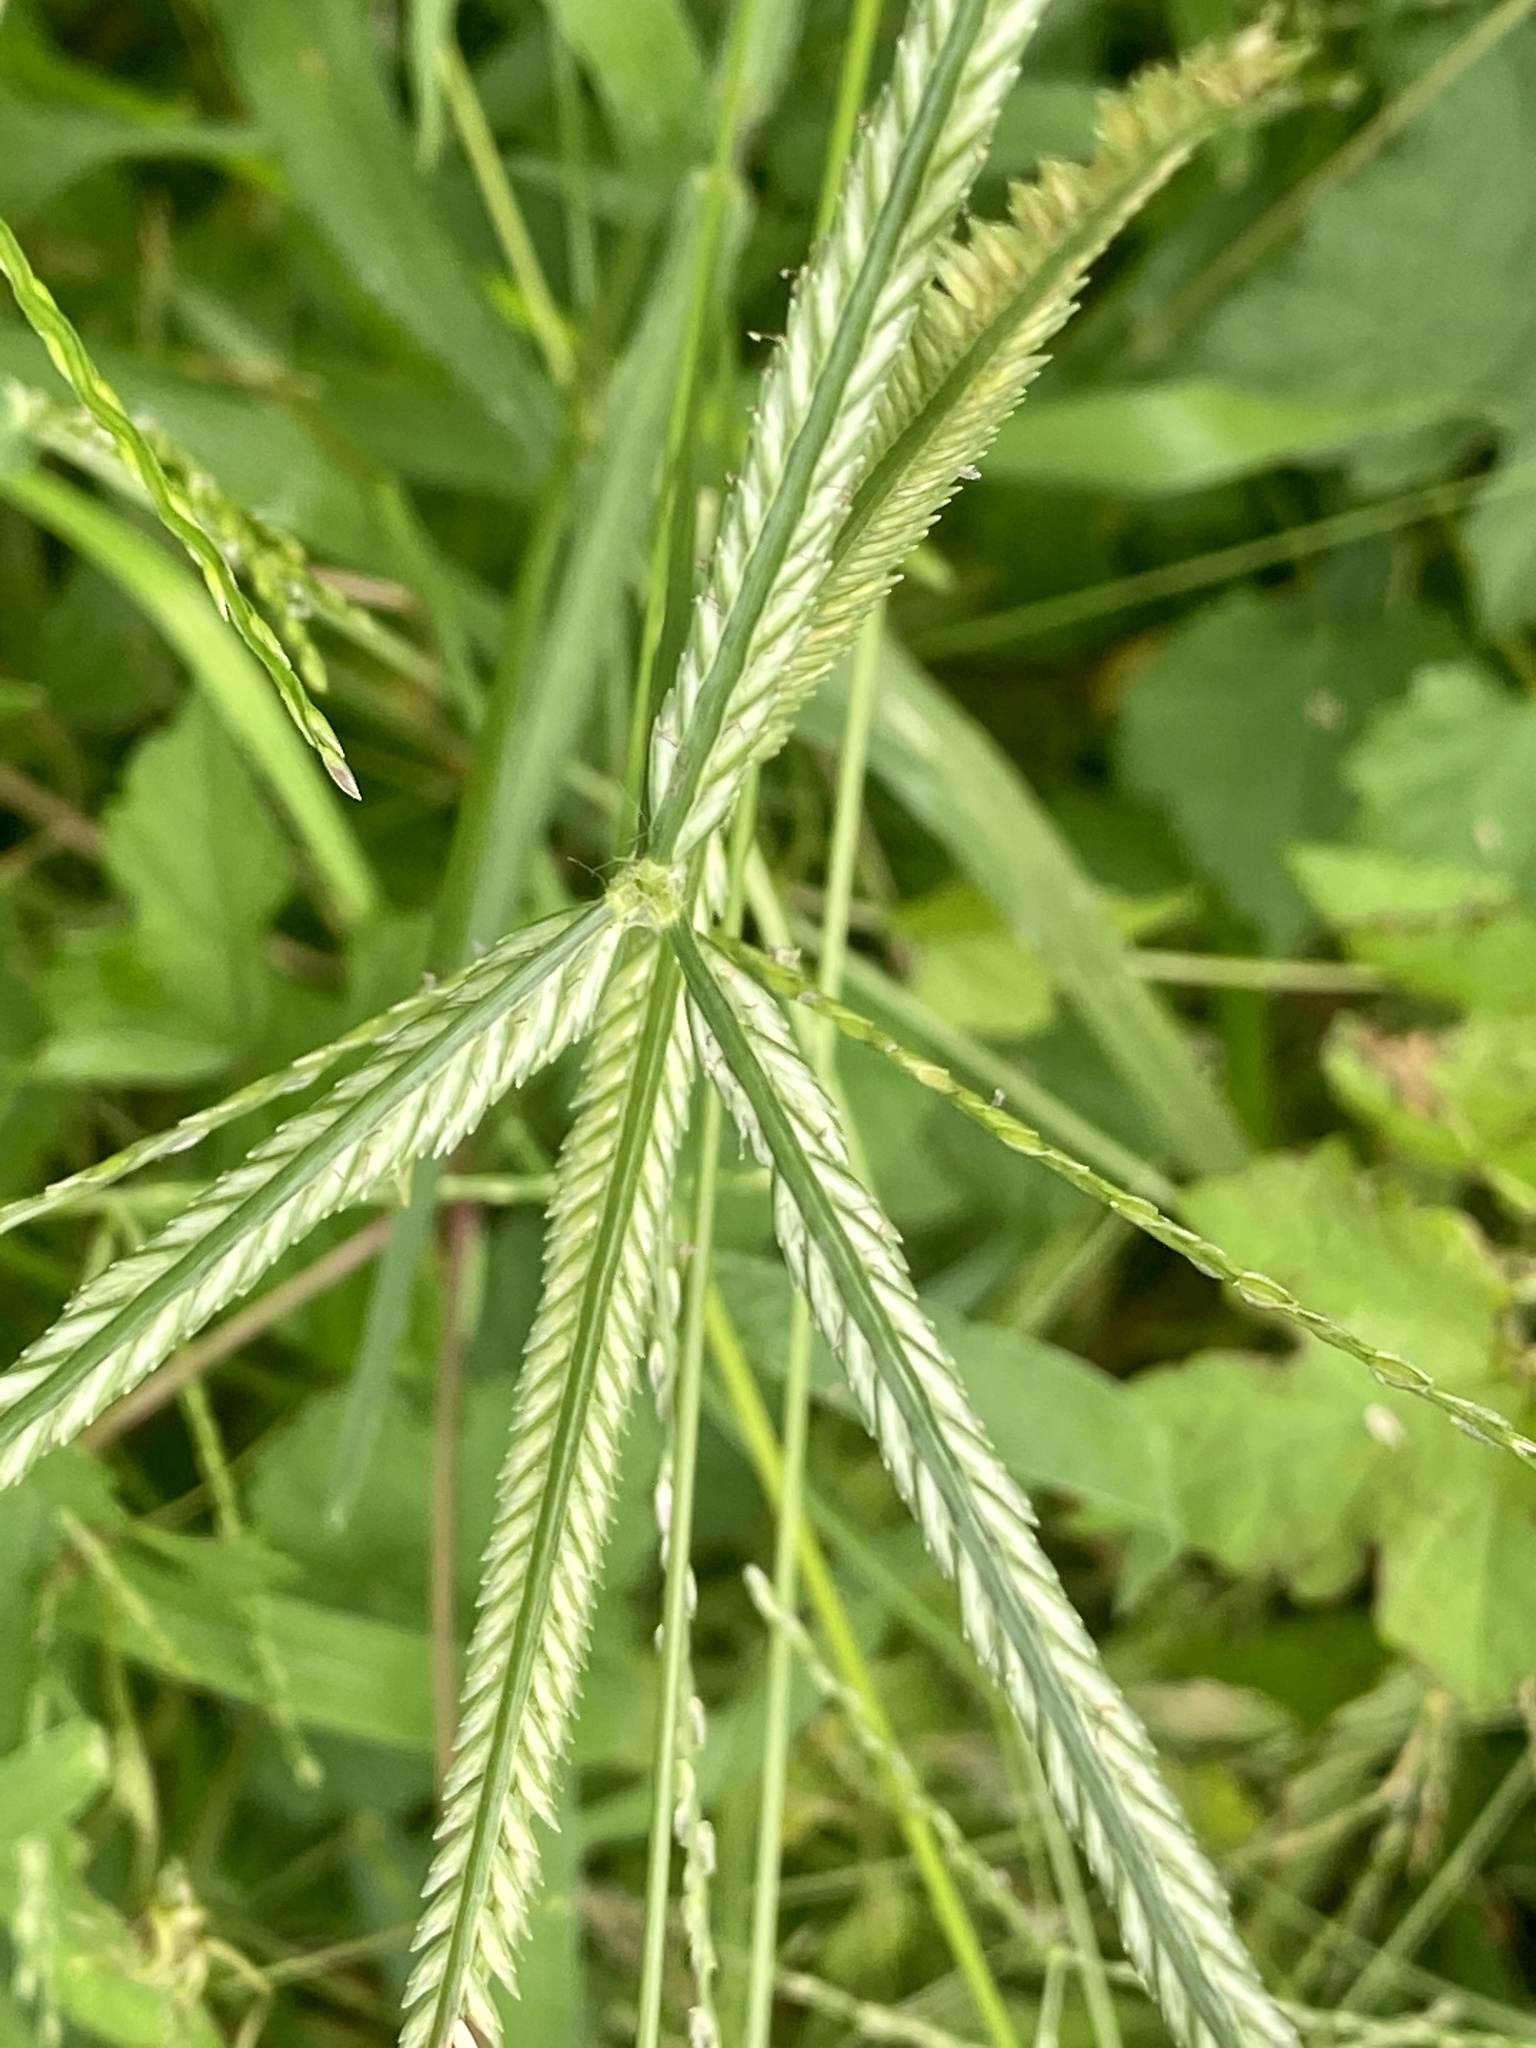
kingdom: Plantae
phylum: Tracheophyta
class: Liliopsida
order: Poales
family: Poaceae
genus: Eleusine
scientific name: Eleusine indica
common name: Yard-grass
